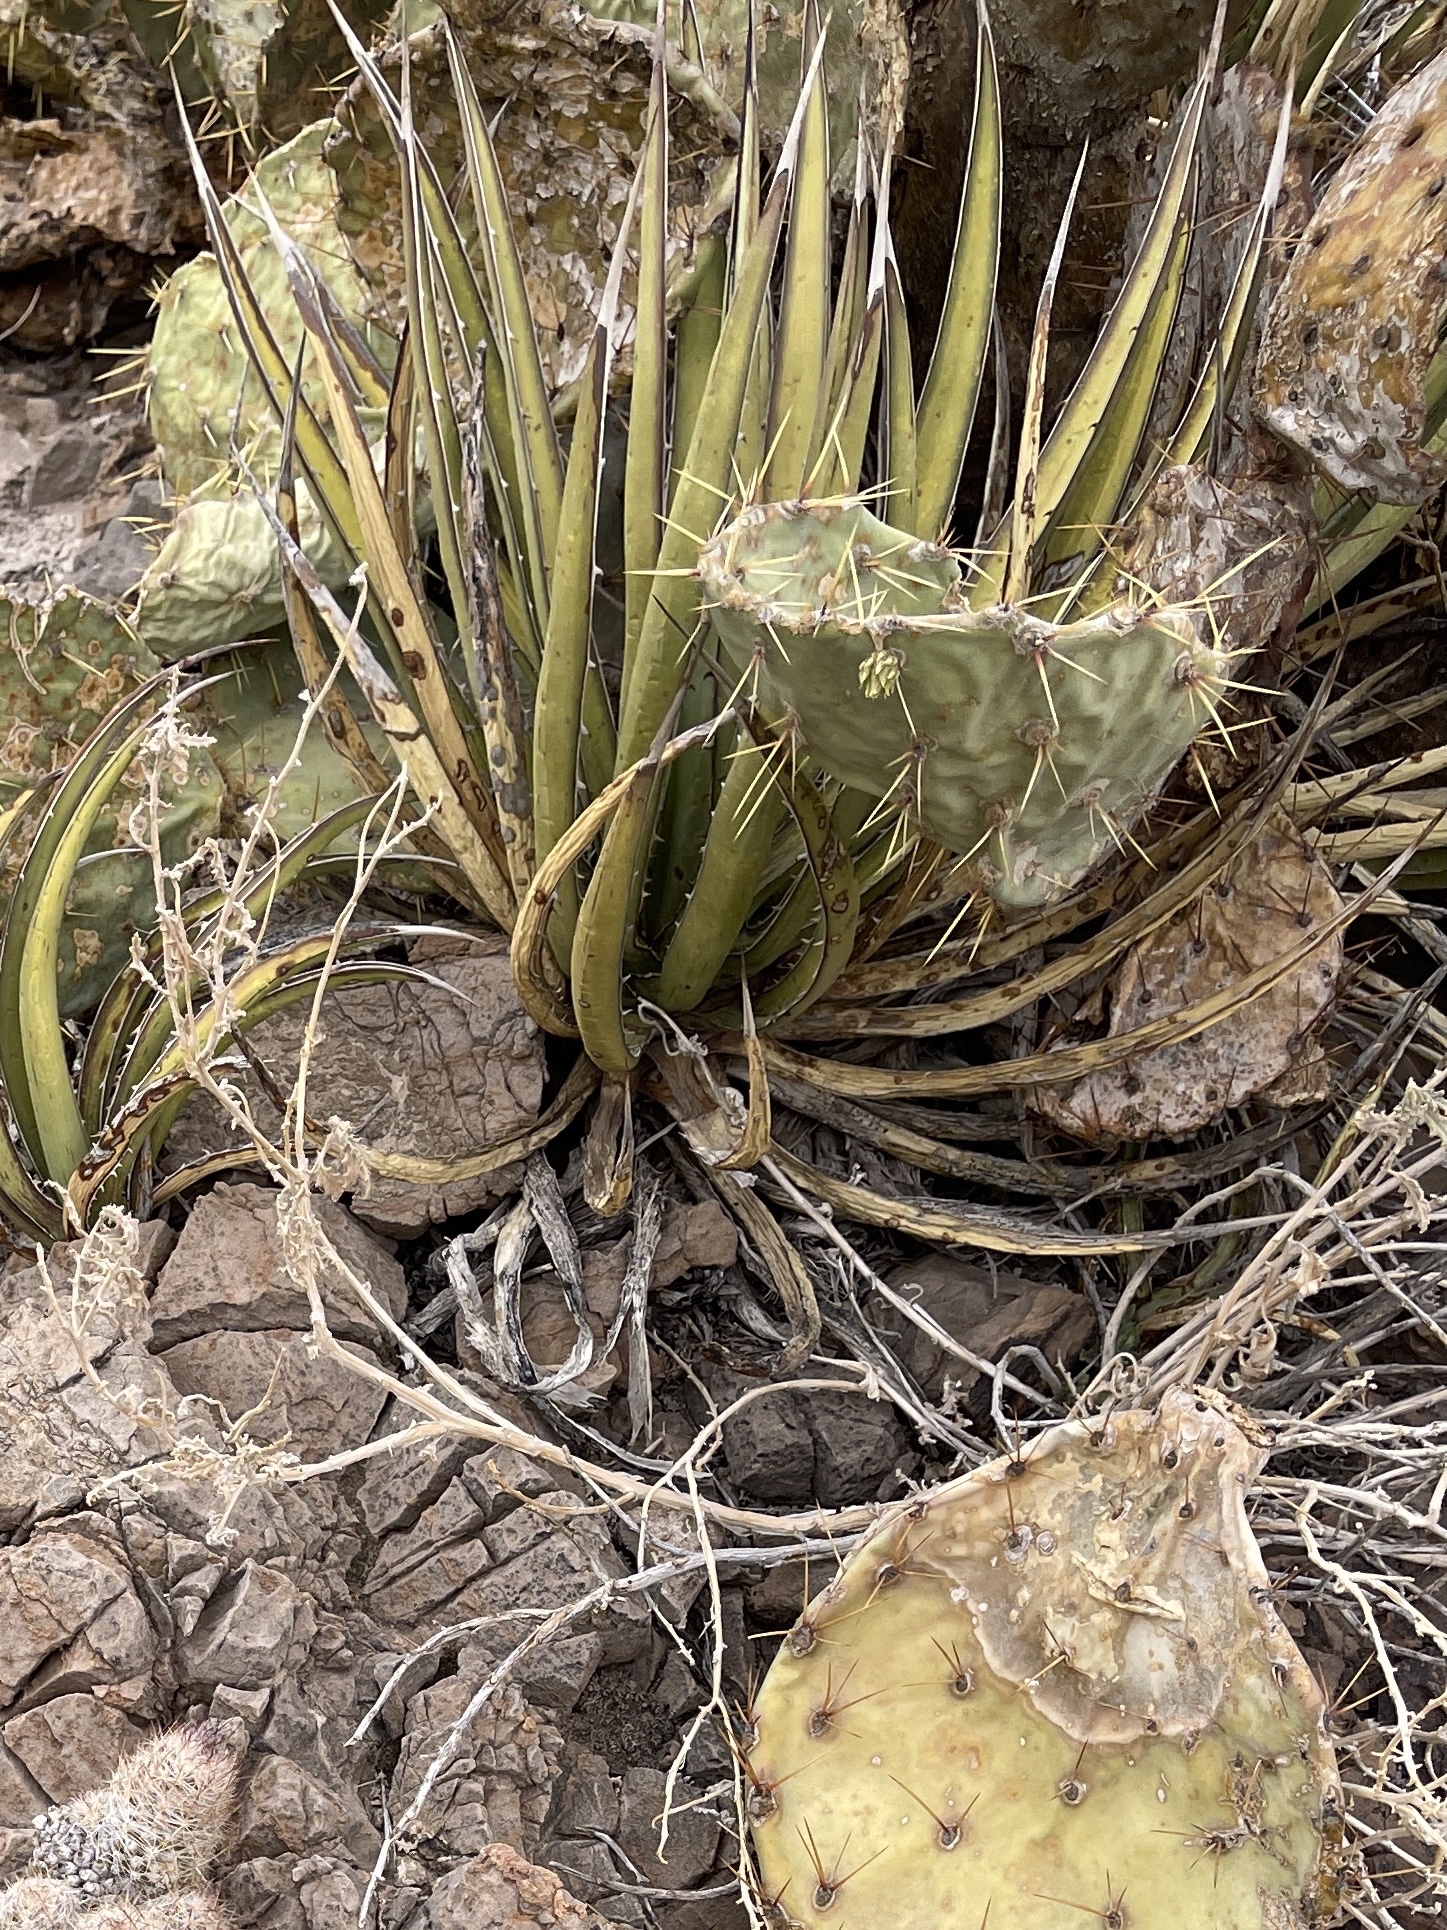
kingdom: Plantae
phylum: Tracheophyta
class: Liliopsida
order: Asparagales
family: Asparagaceae
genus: Agave
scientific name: Agave lechuguilla
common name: Lecheguilla agave
